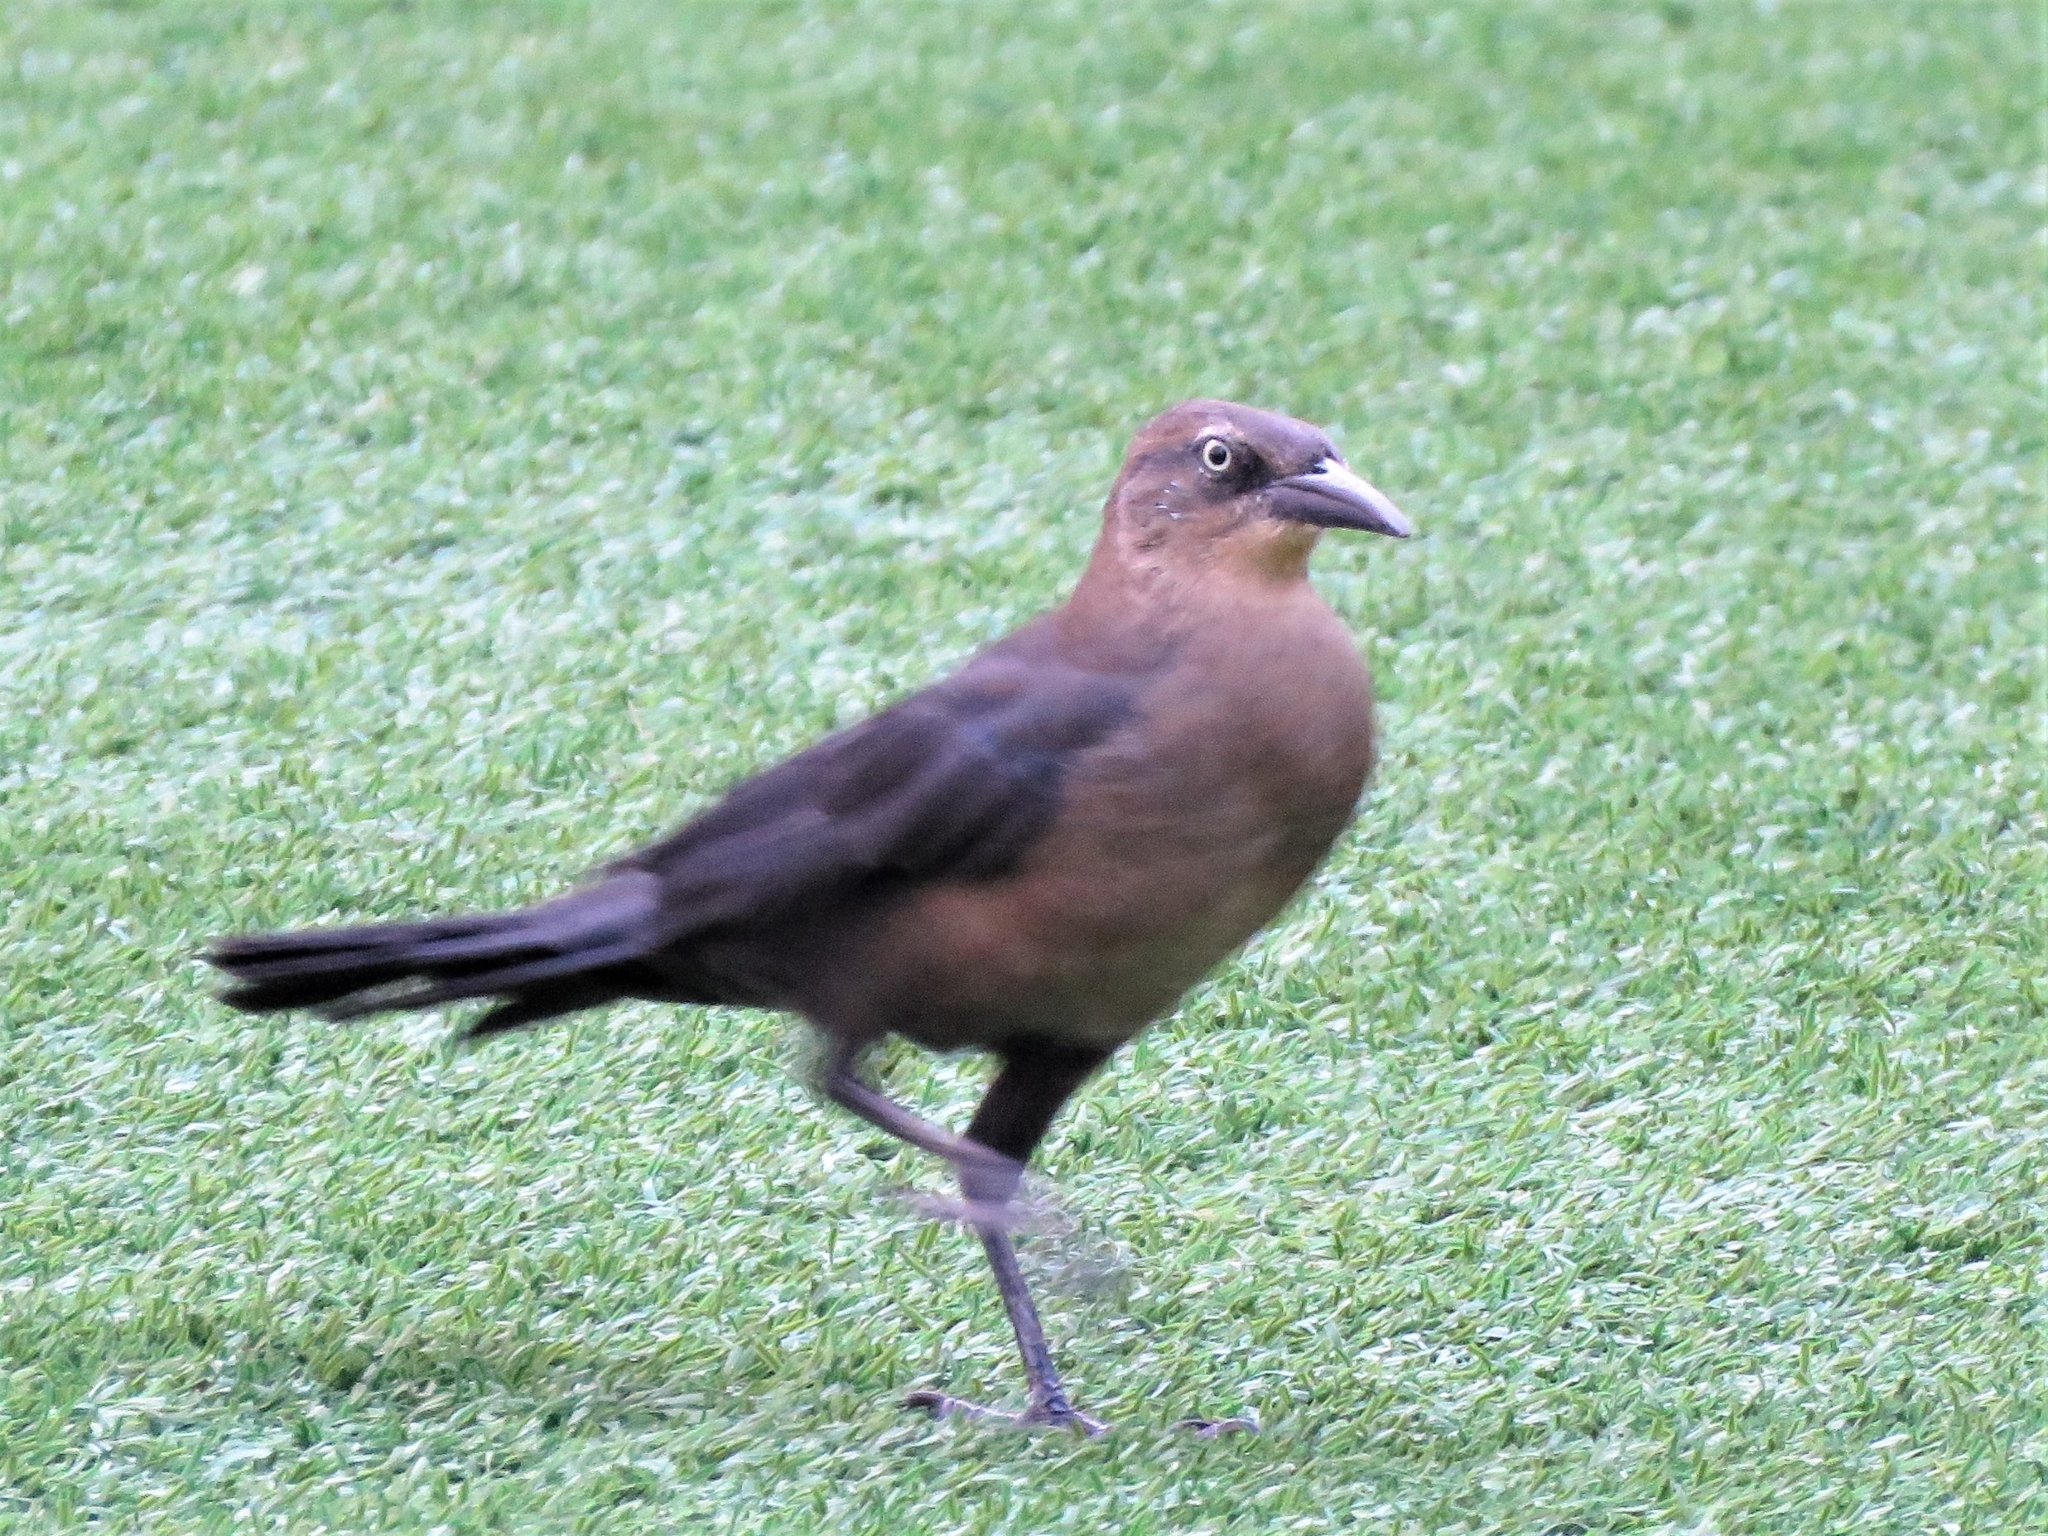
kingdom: Animalia
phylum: Chordata
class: Aves
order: Passeriformes
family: Icteridae
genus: Quiscalus
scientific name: Quiscalus mexicanus
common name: Great-tailed grackle
